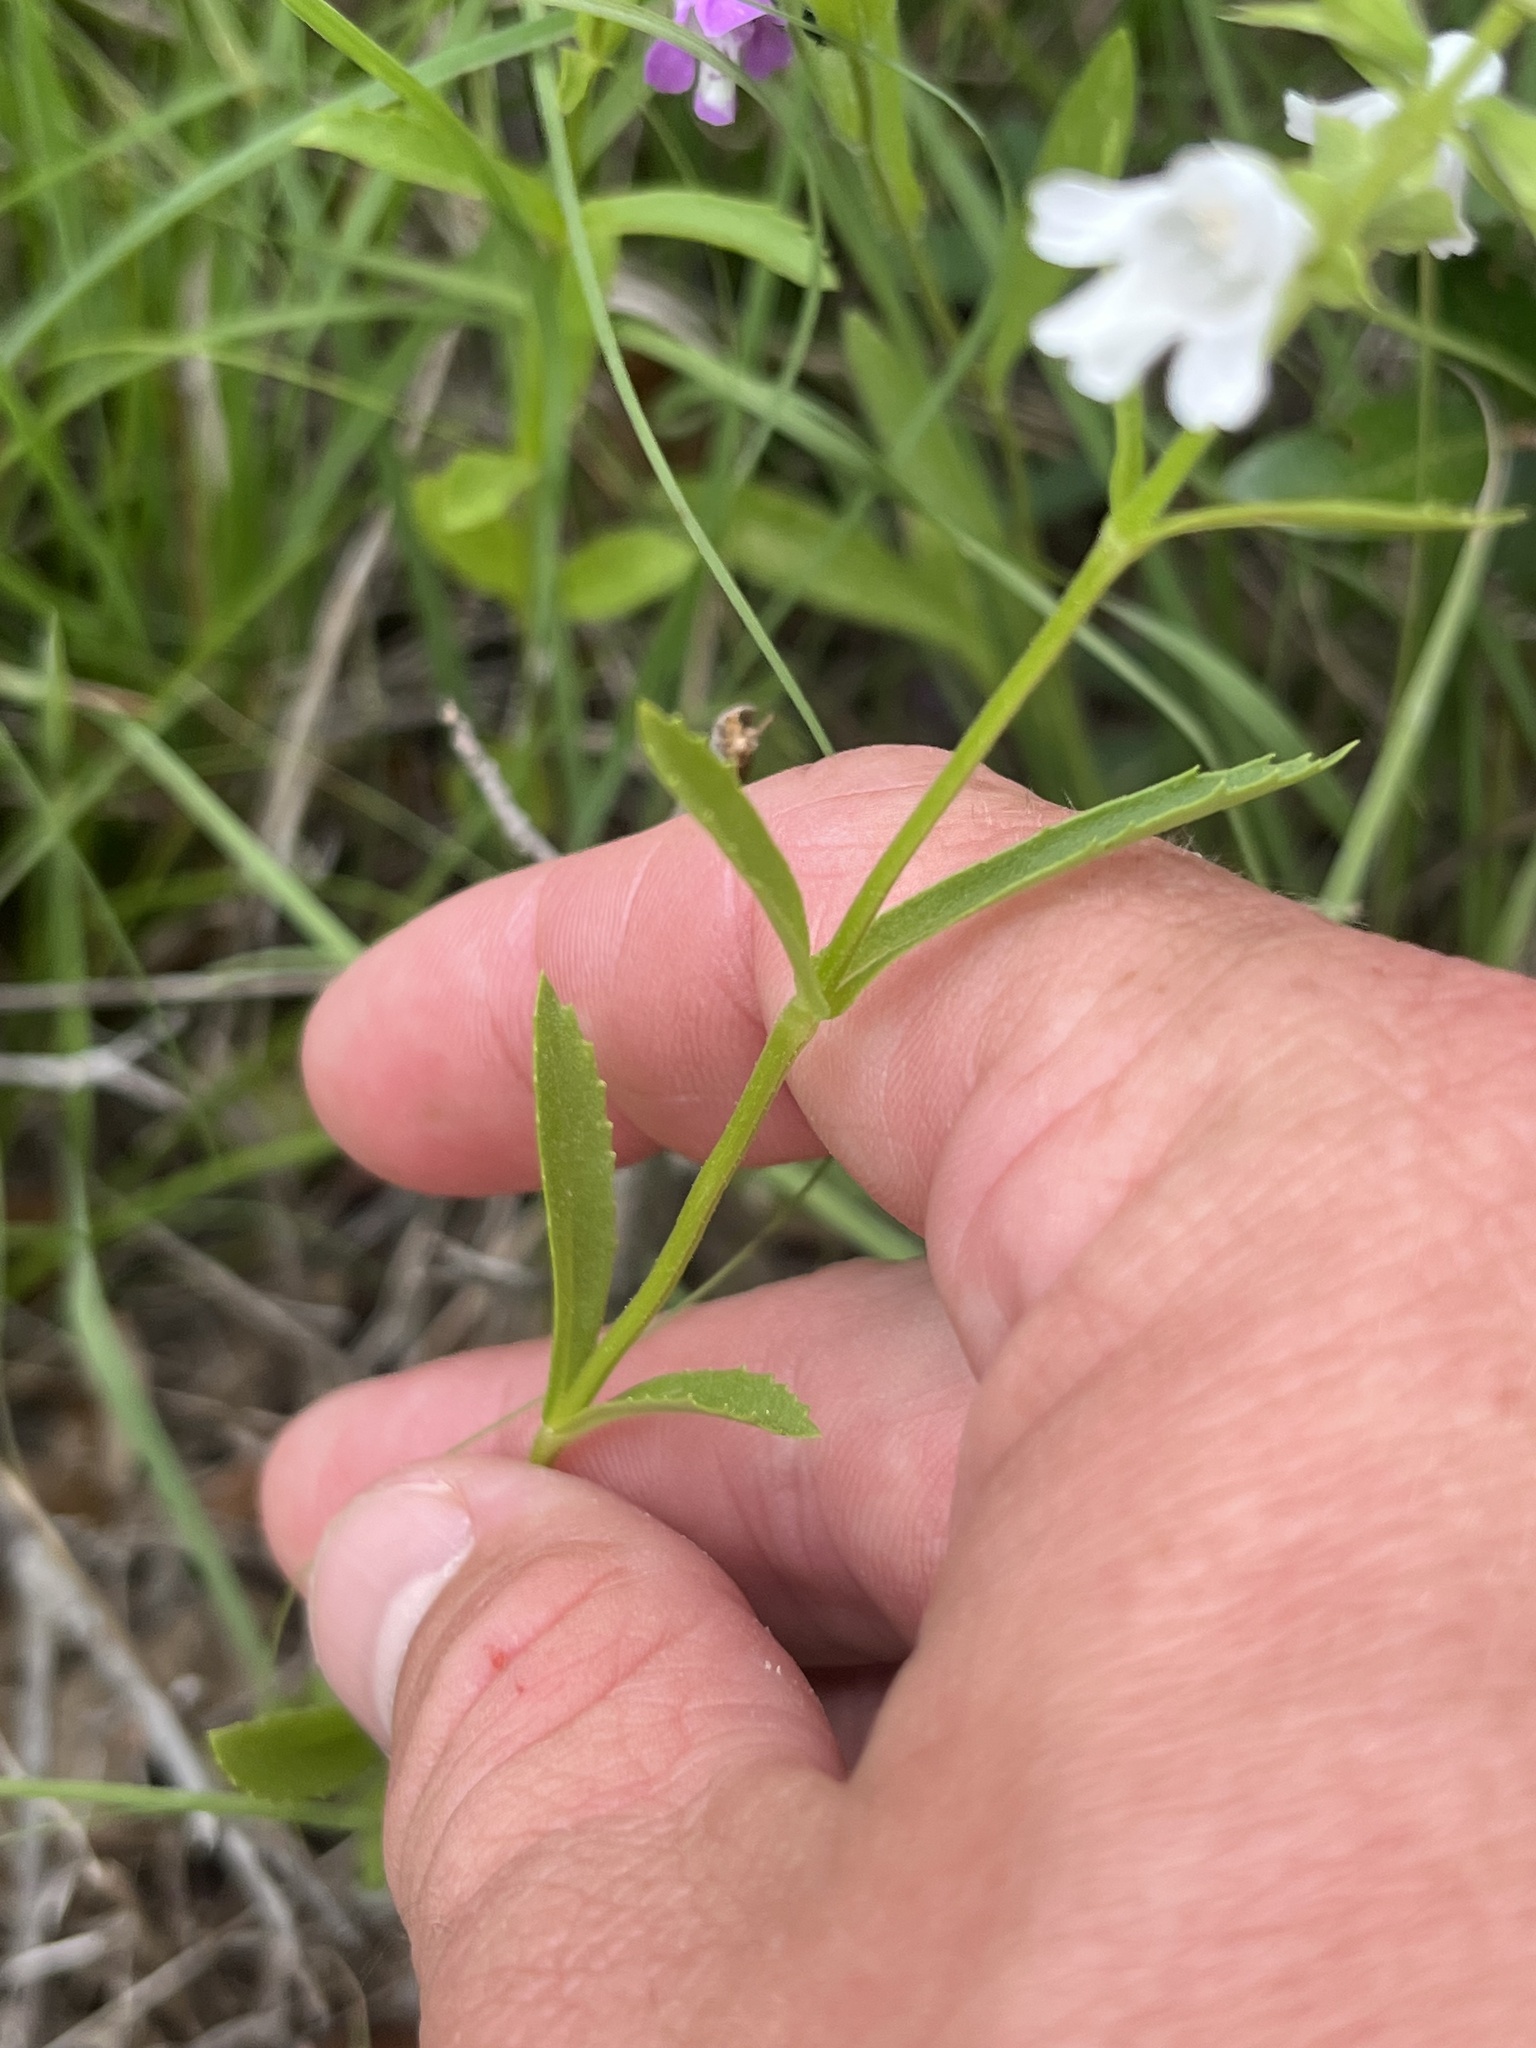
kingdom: Plantae
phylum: Tracheophyta
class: Magnoliopsida
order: Lamiales
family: Lamiaceae
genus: Warnockia
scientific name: Warnockia scutellarioides
